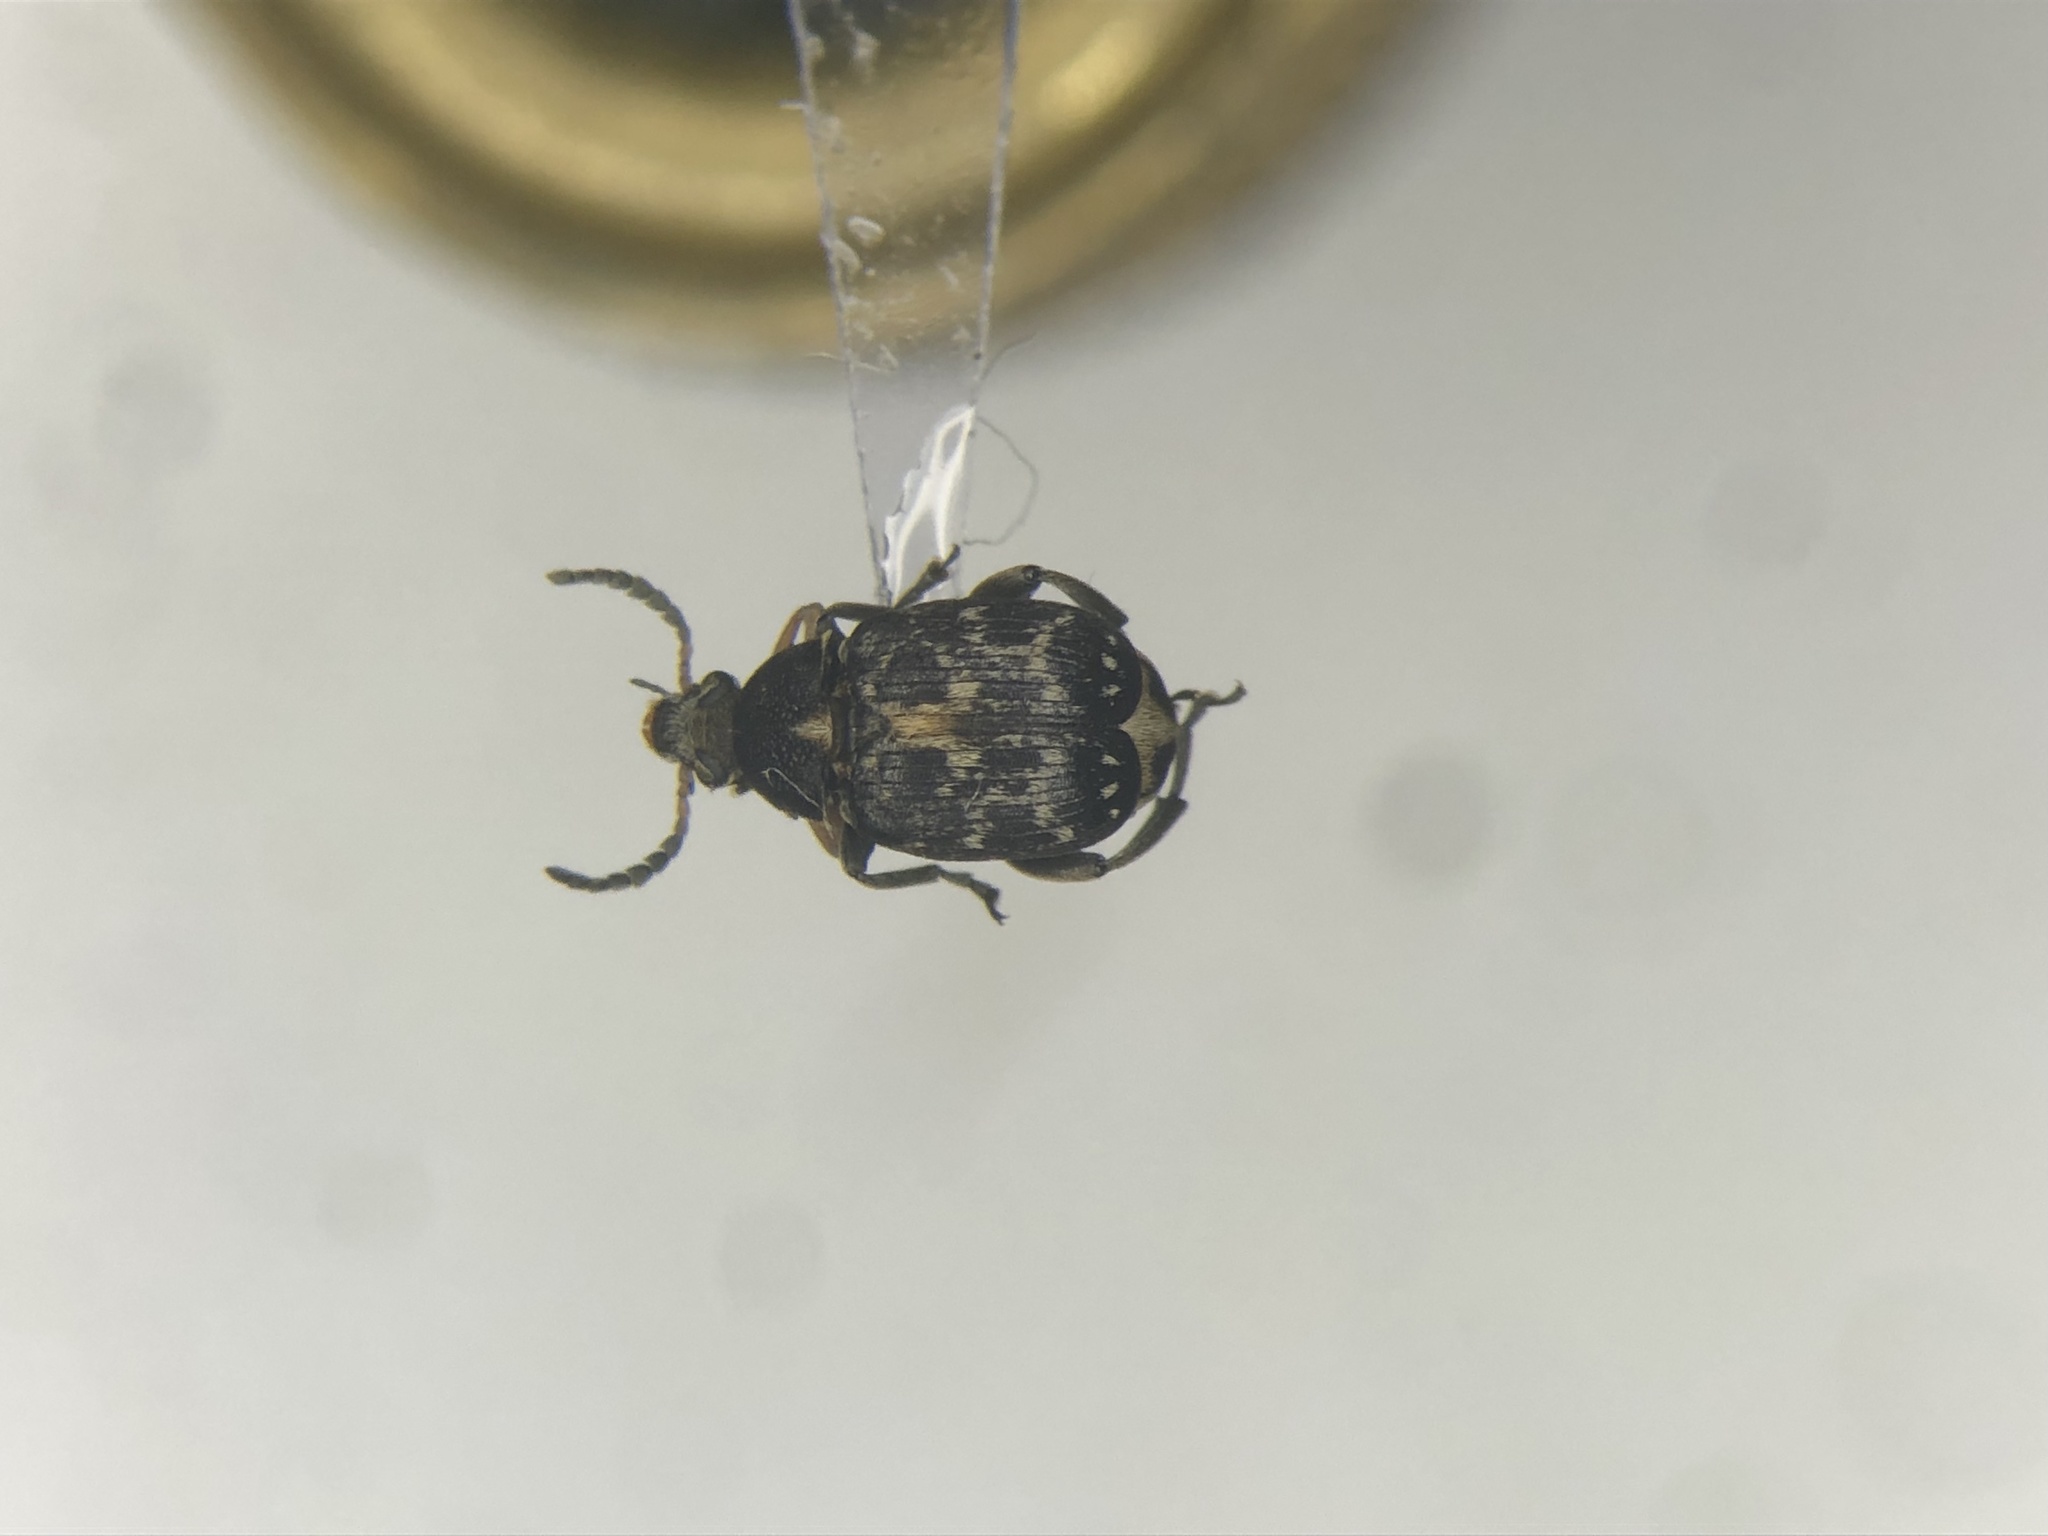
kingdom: Animalia
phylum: Arthropoda
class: Insecta
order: Coleoptera
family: Chrysomelidae
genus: Bruchus
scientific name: Bruchus affinis
